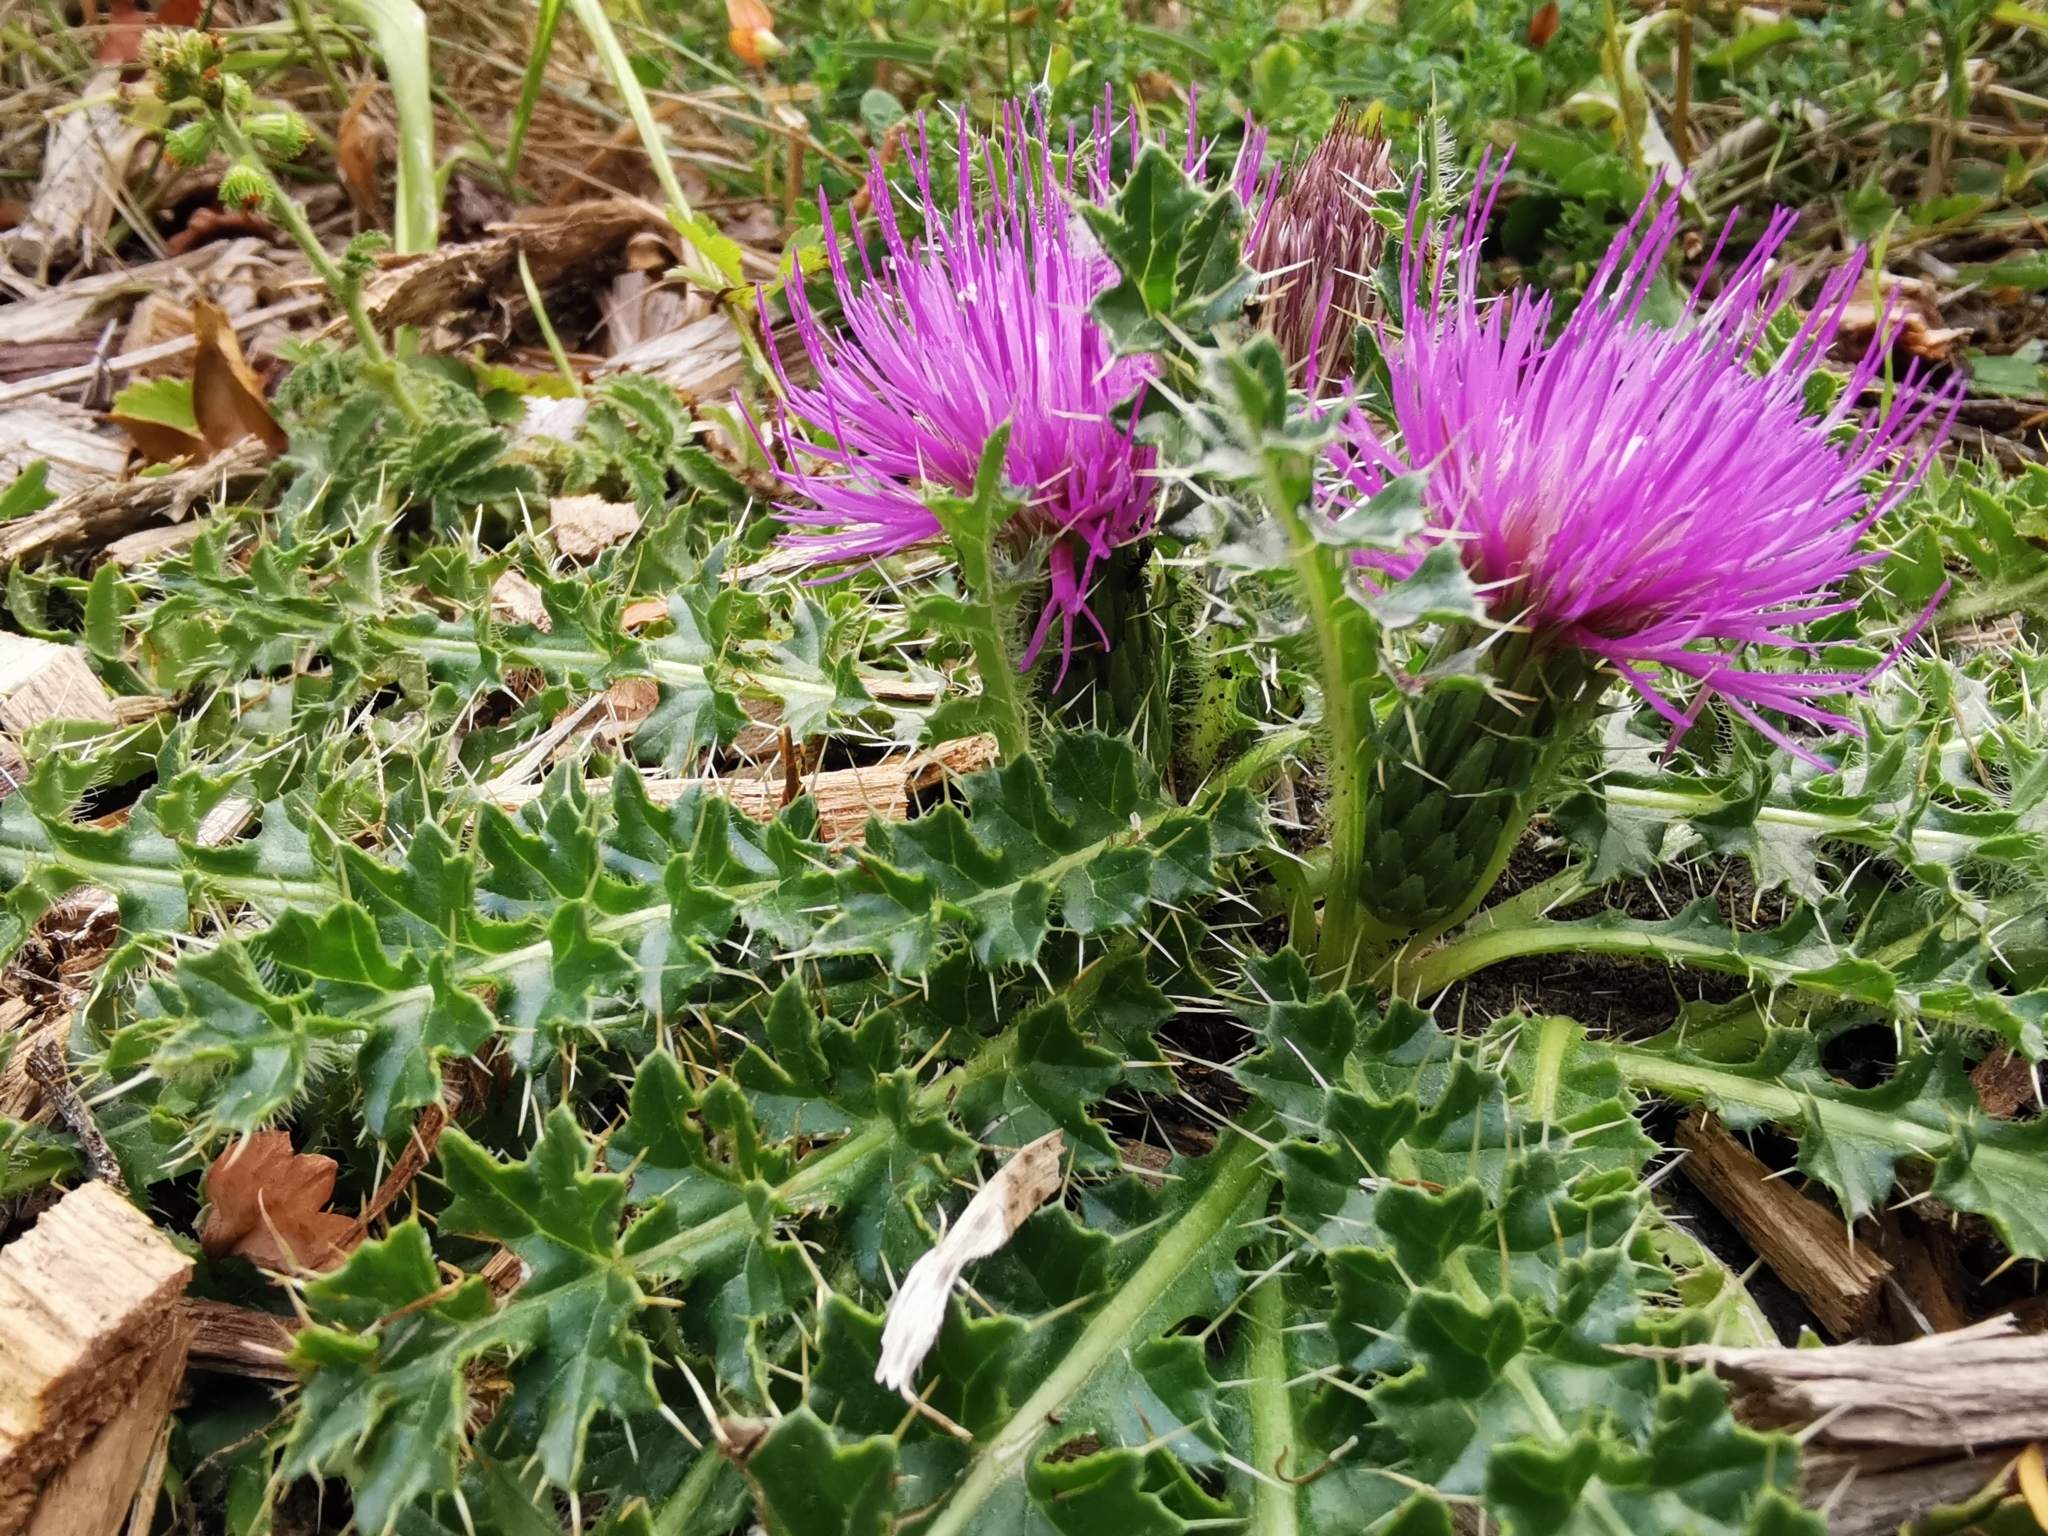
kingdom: Plantae
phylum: Tracheophyta
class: Magnoliopsida
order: Asterales
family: Asteraceae
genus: Cirsium
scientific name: Cirsium acaulon
